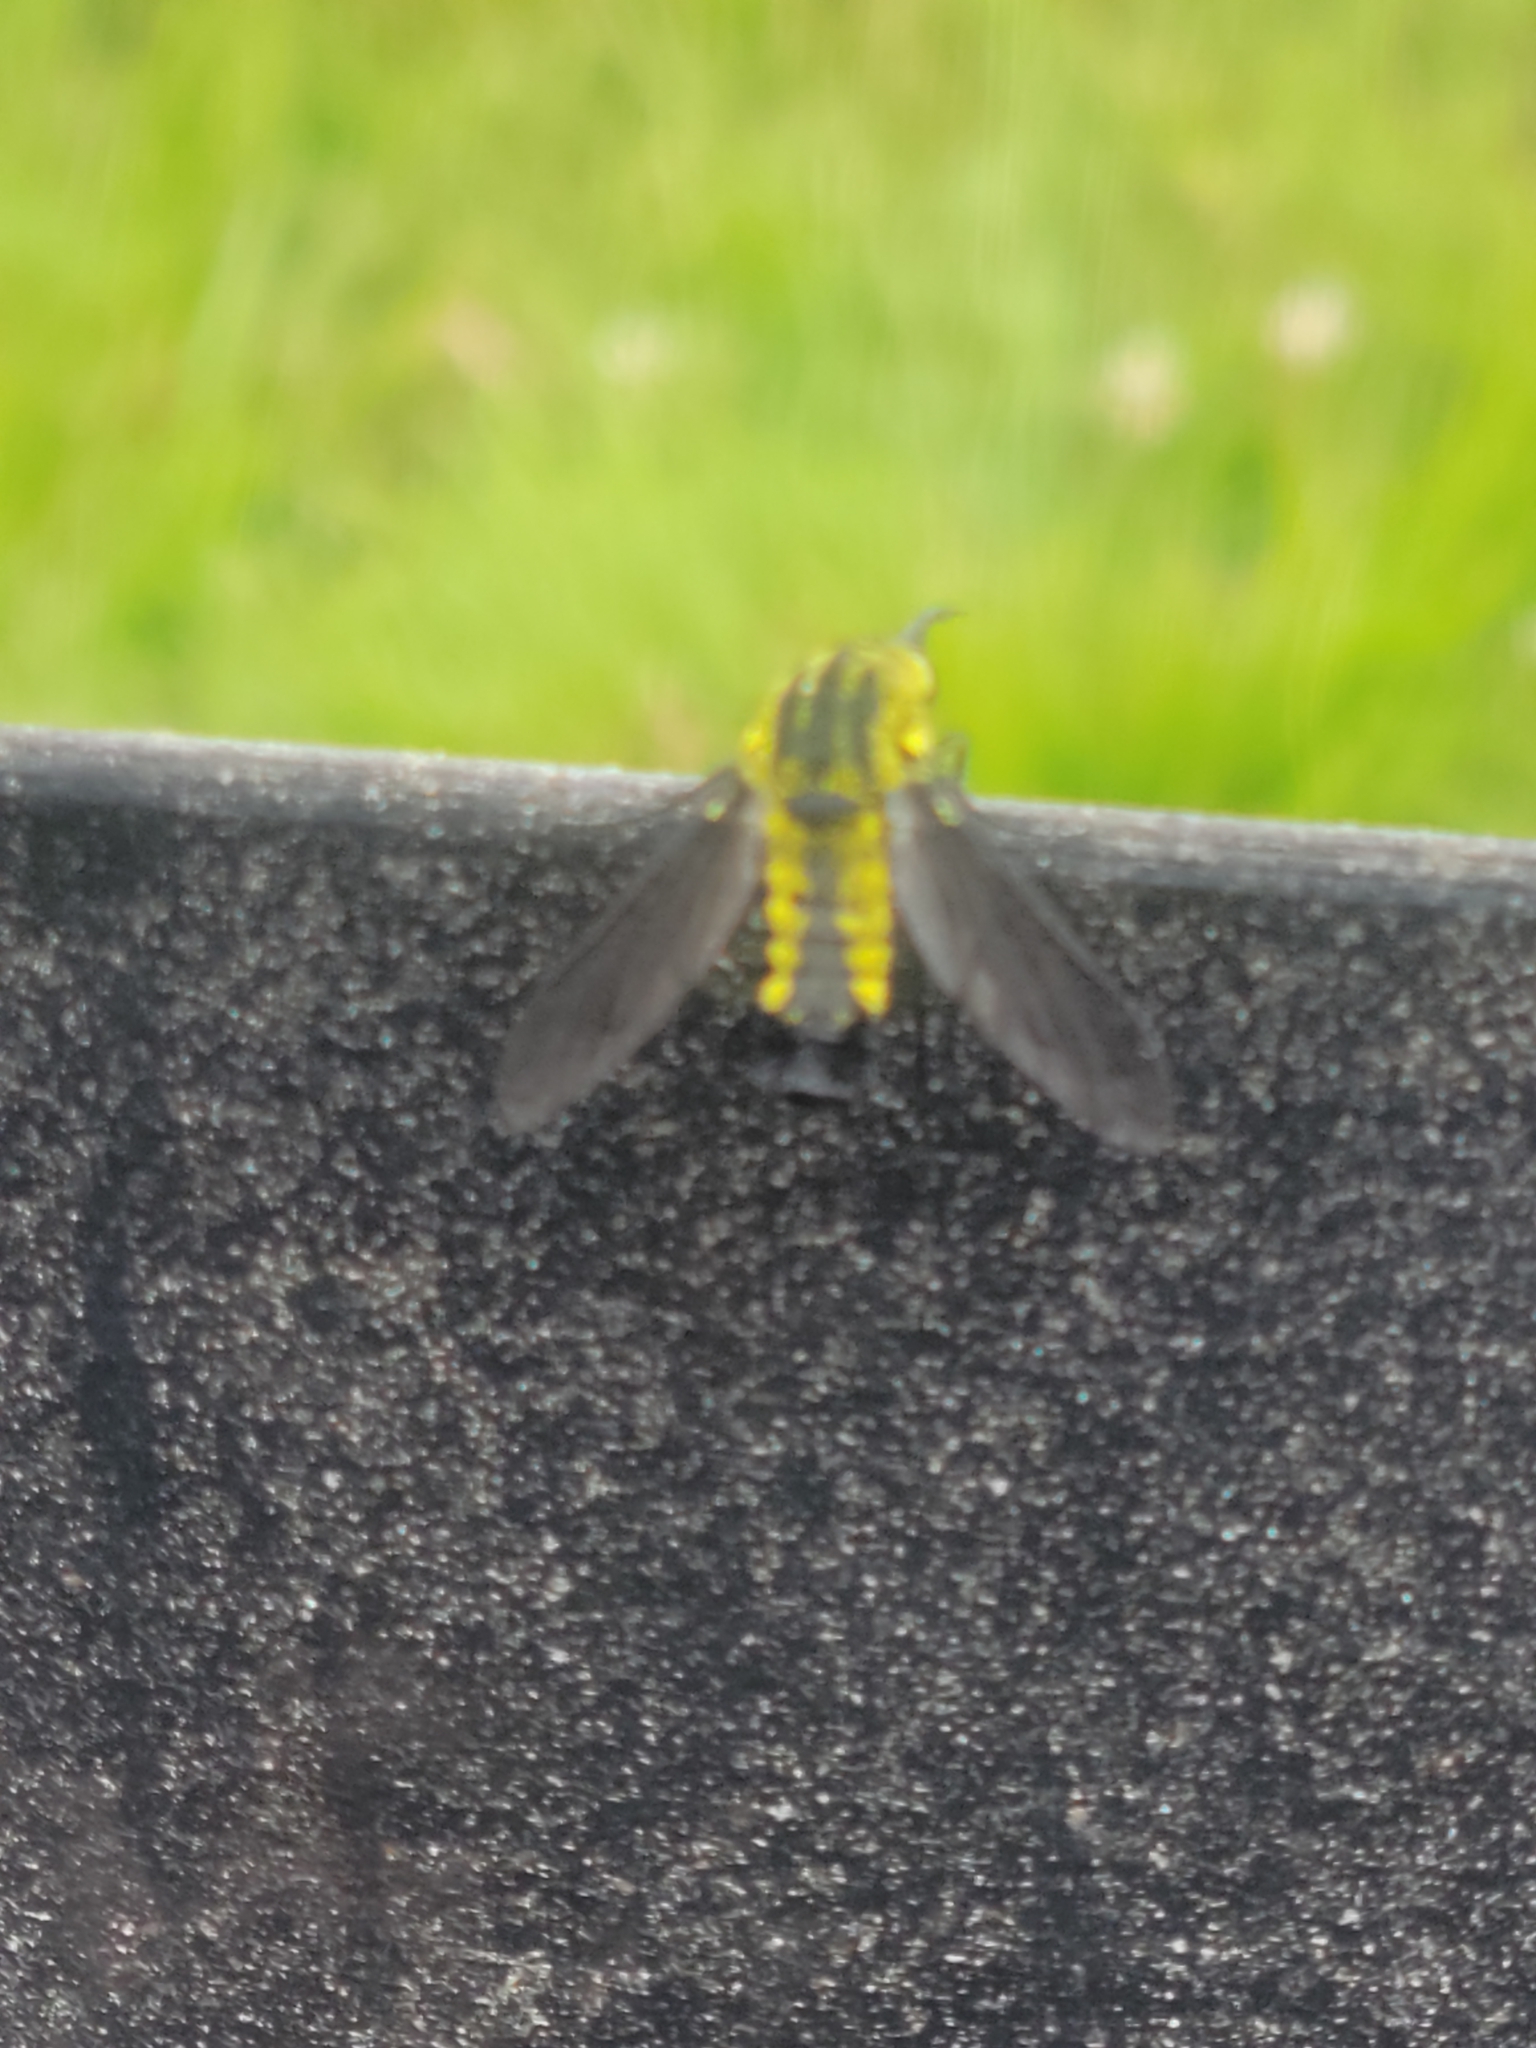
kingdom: Animalia
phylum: Arthropoda
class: Insecta
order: Diptera
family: Bombyliidae
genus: Lepidophora
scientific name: Lepidophora lutea
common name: Hunchback bee fly
